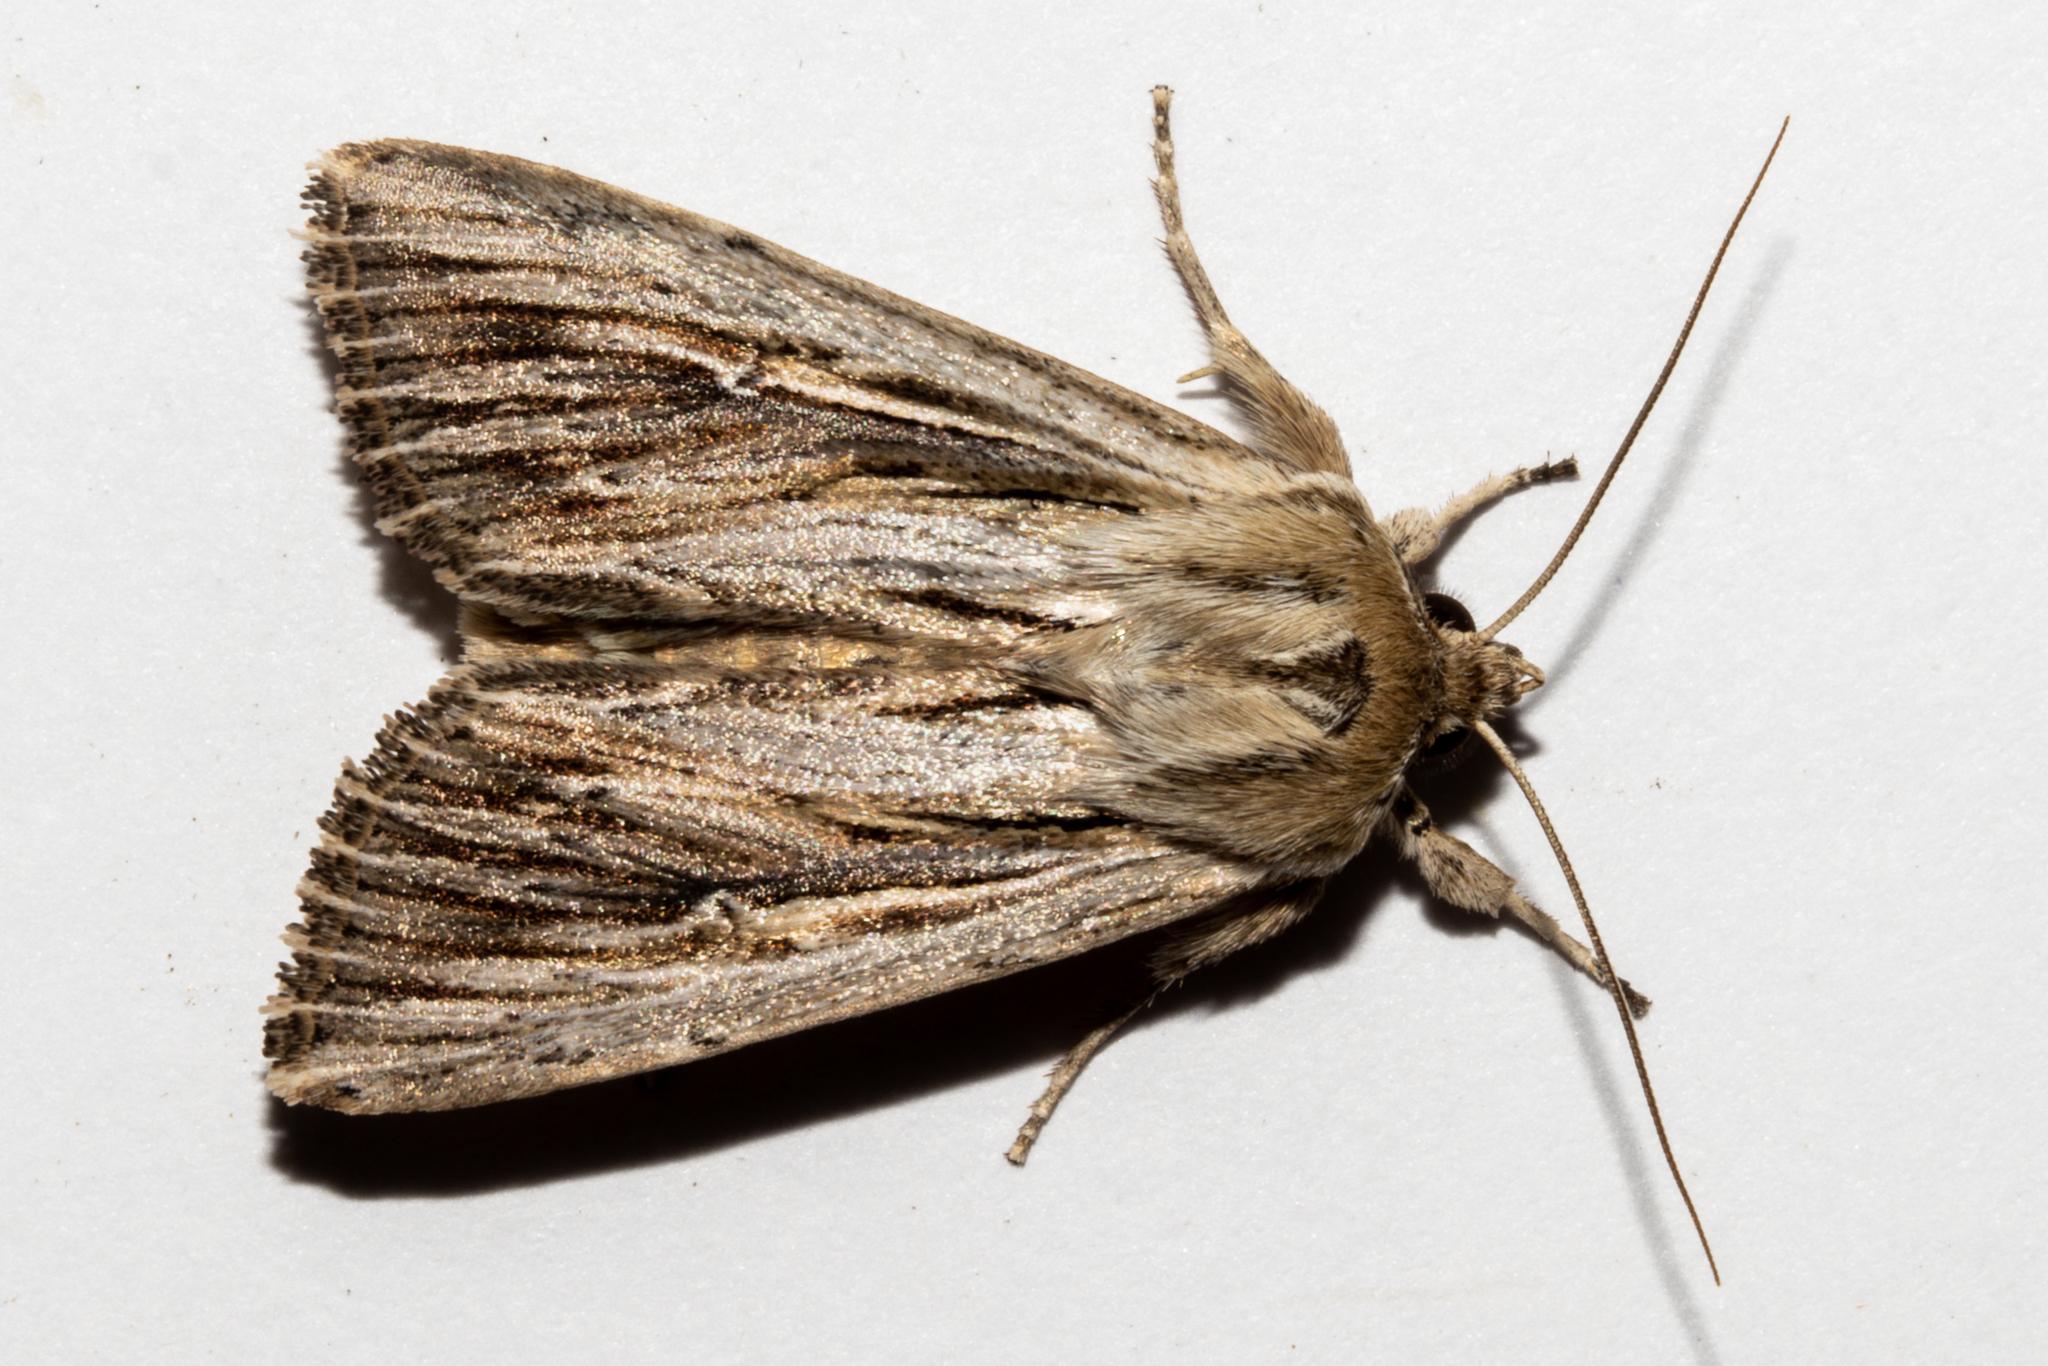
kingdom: Animalia
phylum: Arthropoda
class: Insecta
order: Lepidoptera
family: Noctuidae
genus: Persectania
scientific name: Persectania aversa
